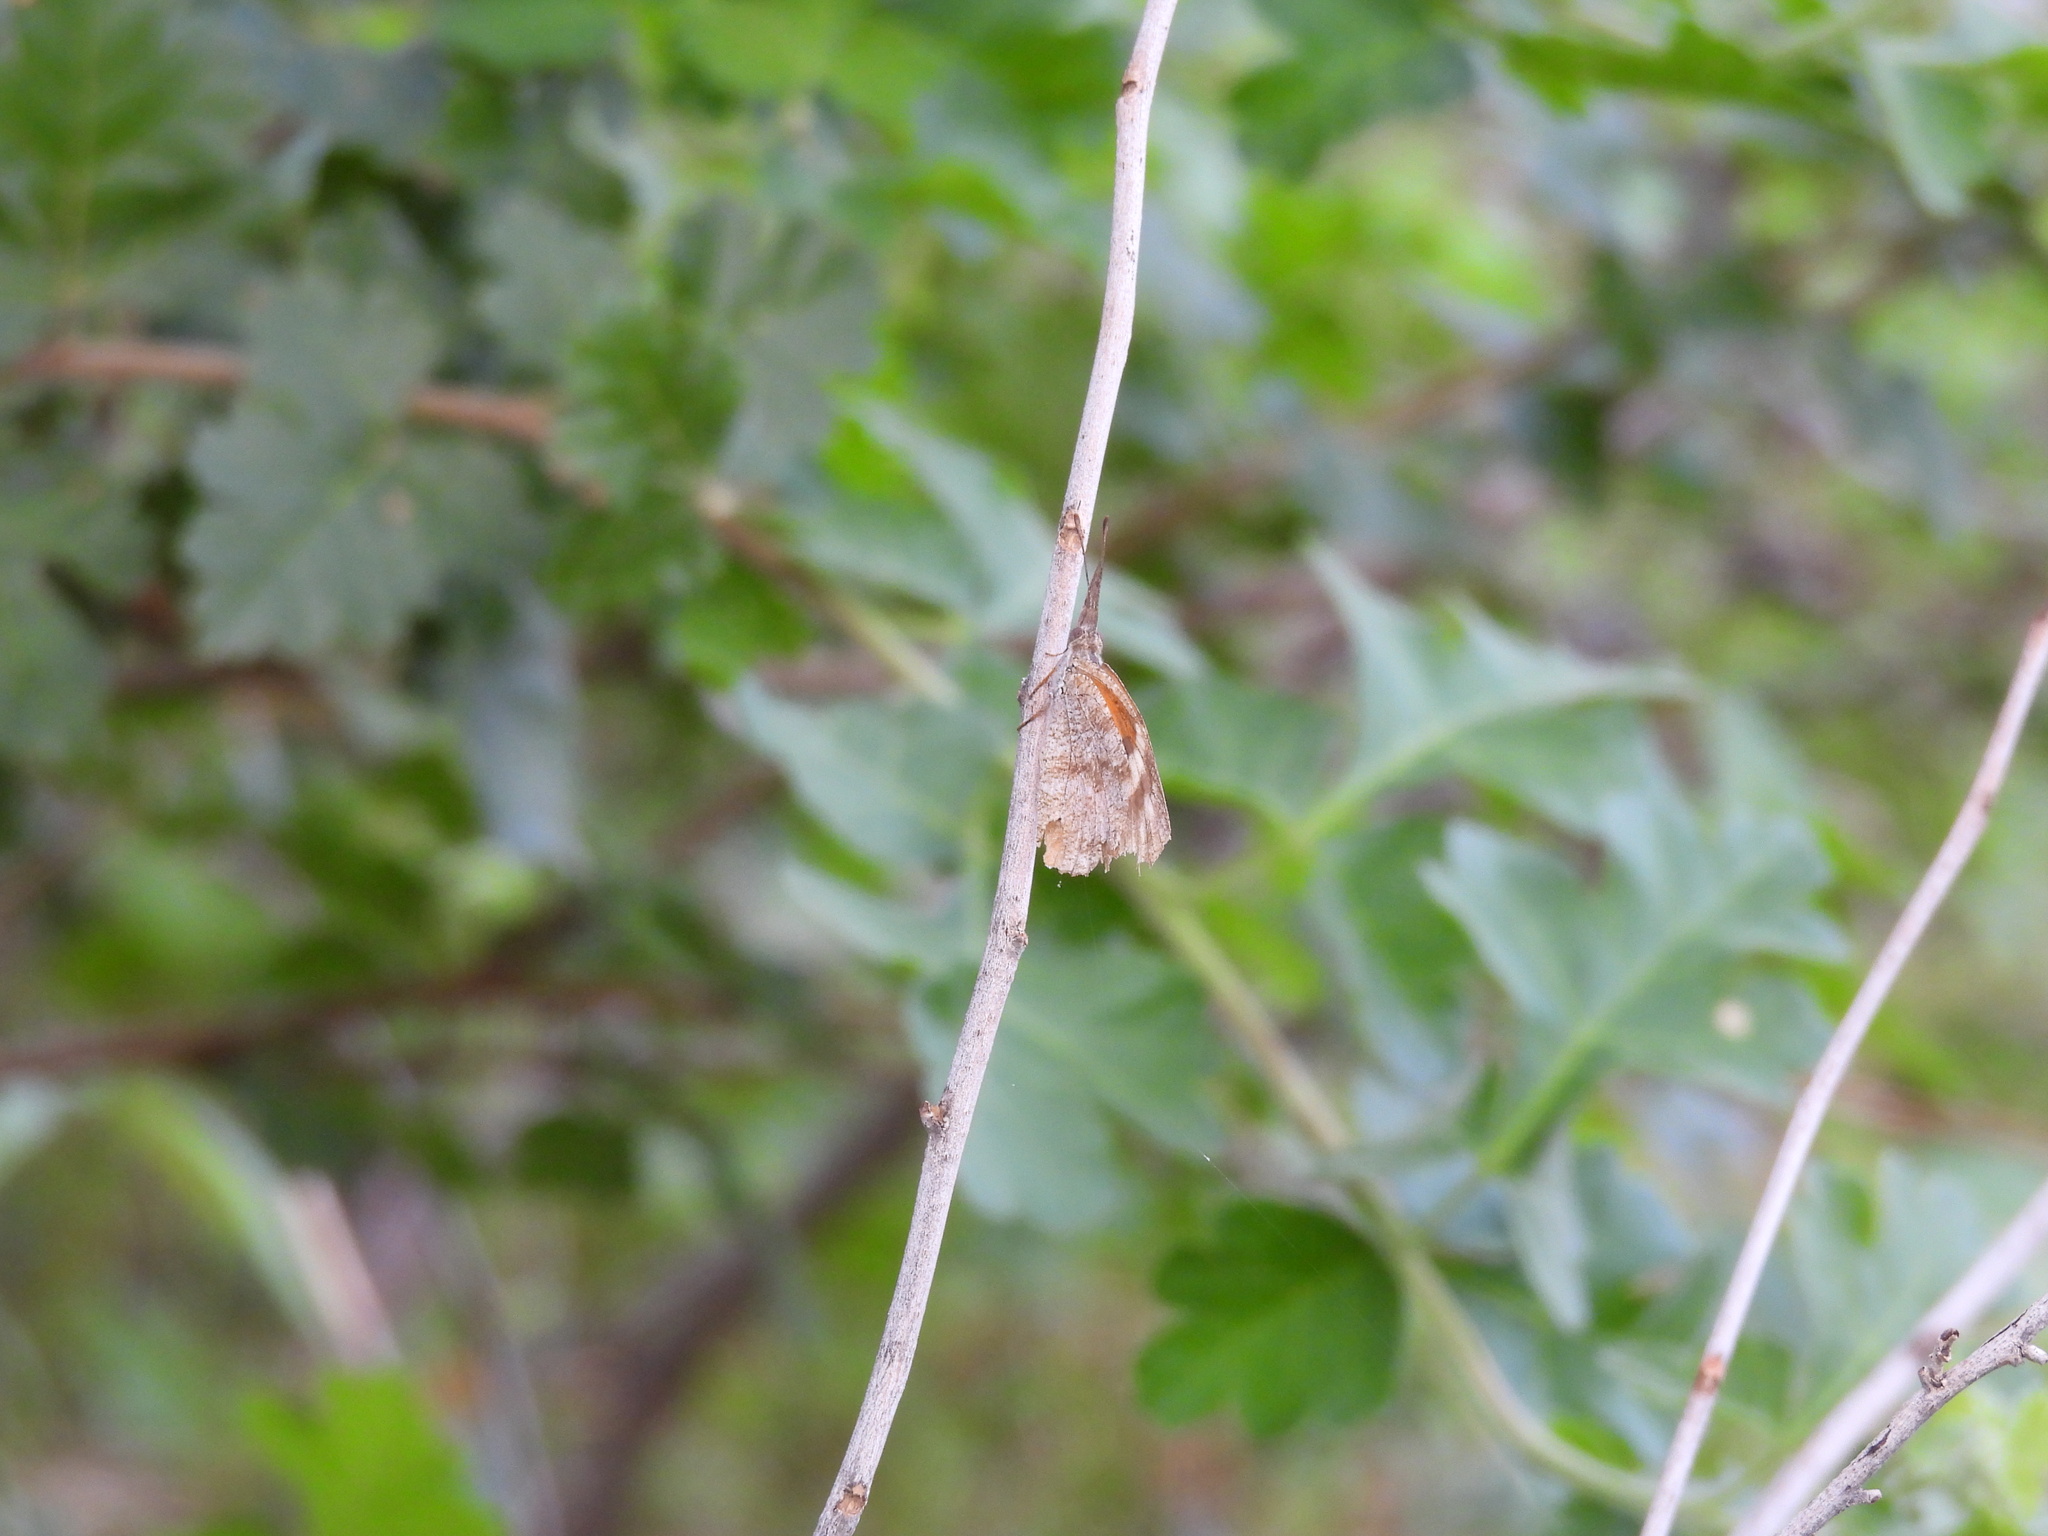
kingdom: Animalia
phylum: Arthropoda
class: Insecta
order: Lepidoptera
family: Nymphalidae
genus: Libytheana
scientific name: Libytheana carinenta
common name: American snout
